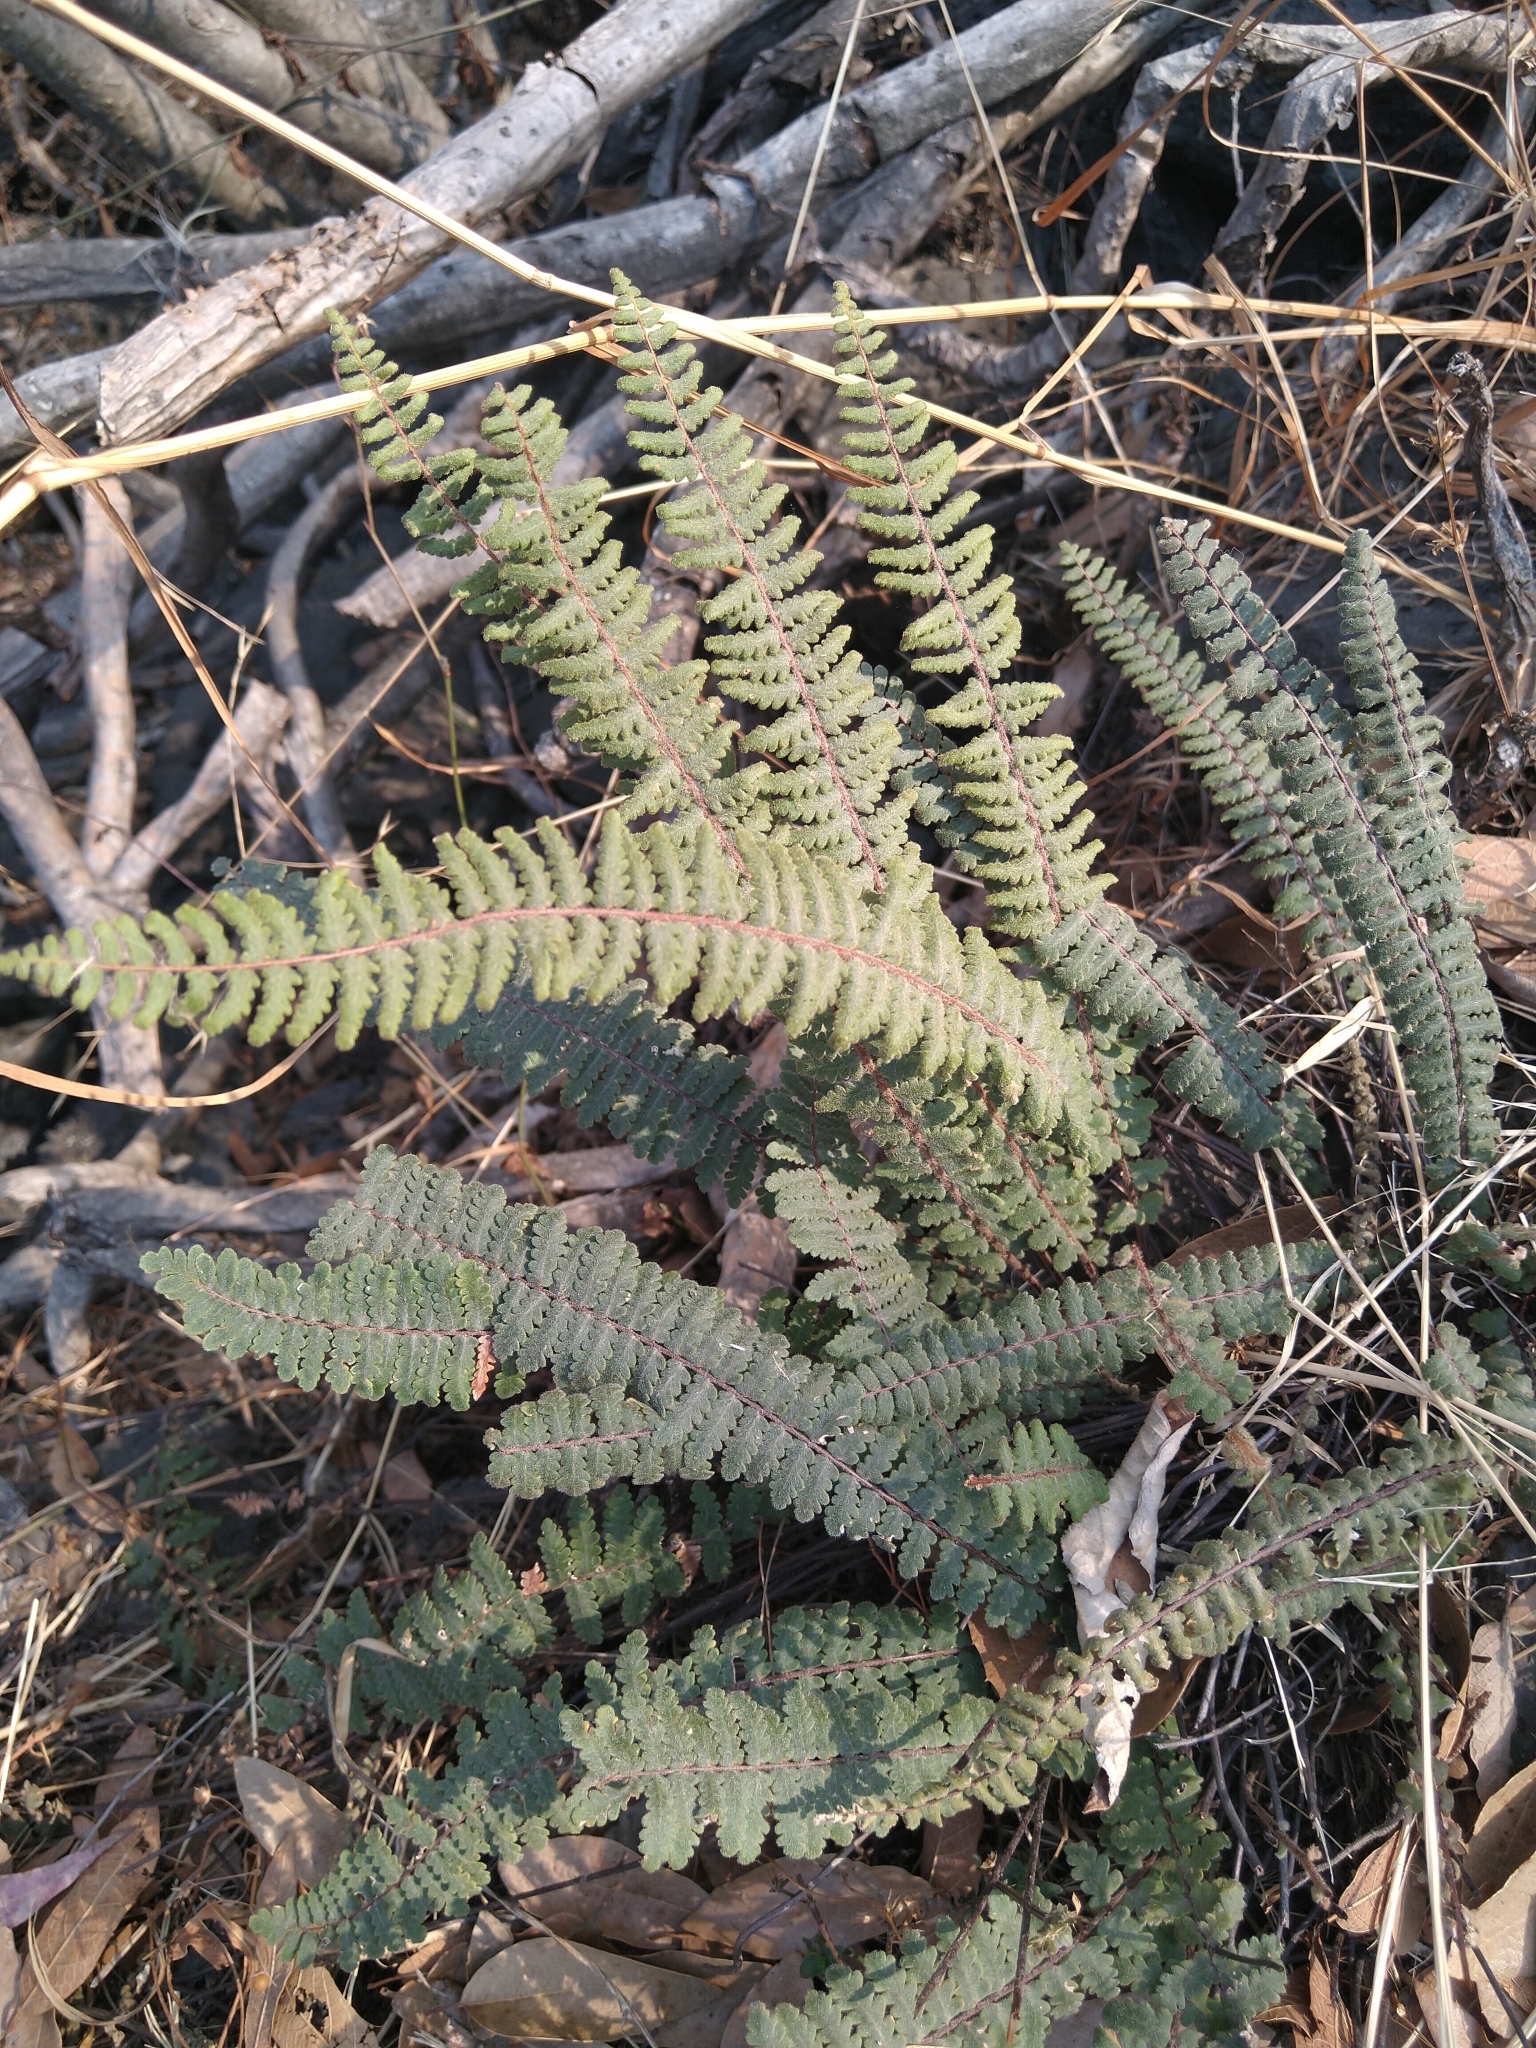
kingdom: Plantae
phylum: Tracheophyta
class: Polypodiopsida
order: Polypodiales
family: Pteridaceae
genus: Myriopteris
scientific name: Myriopteris aurea
